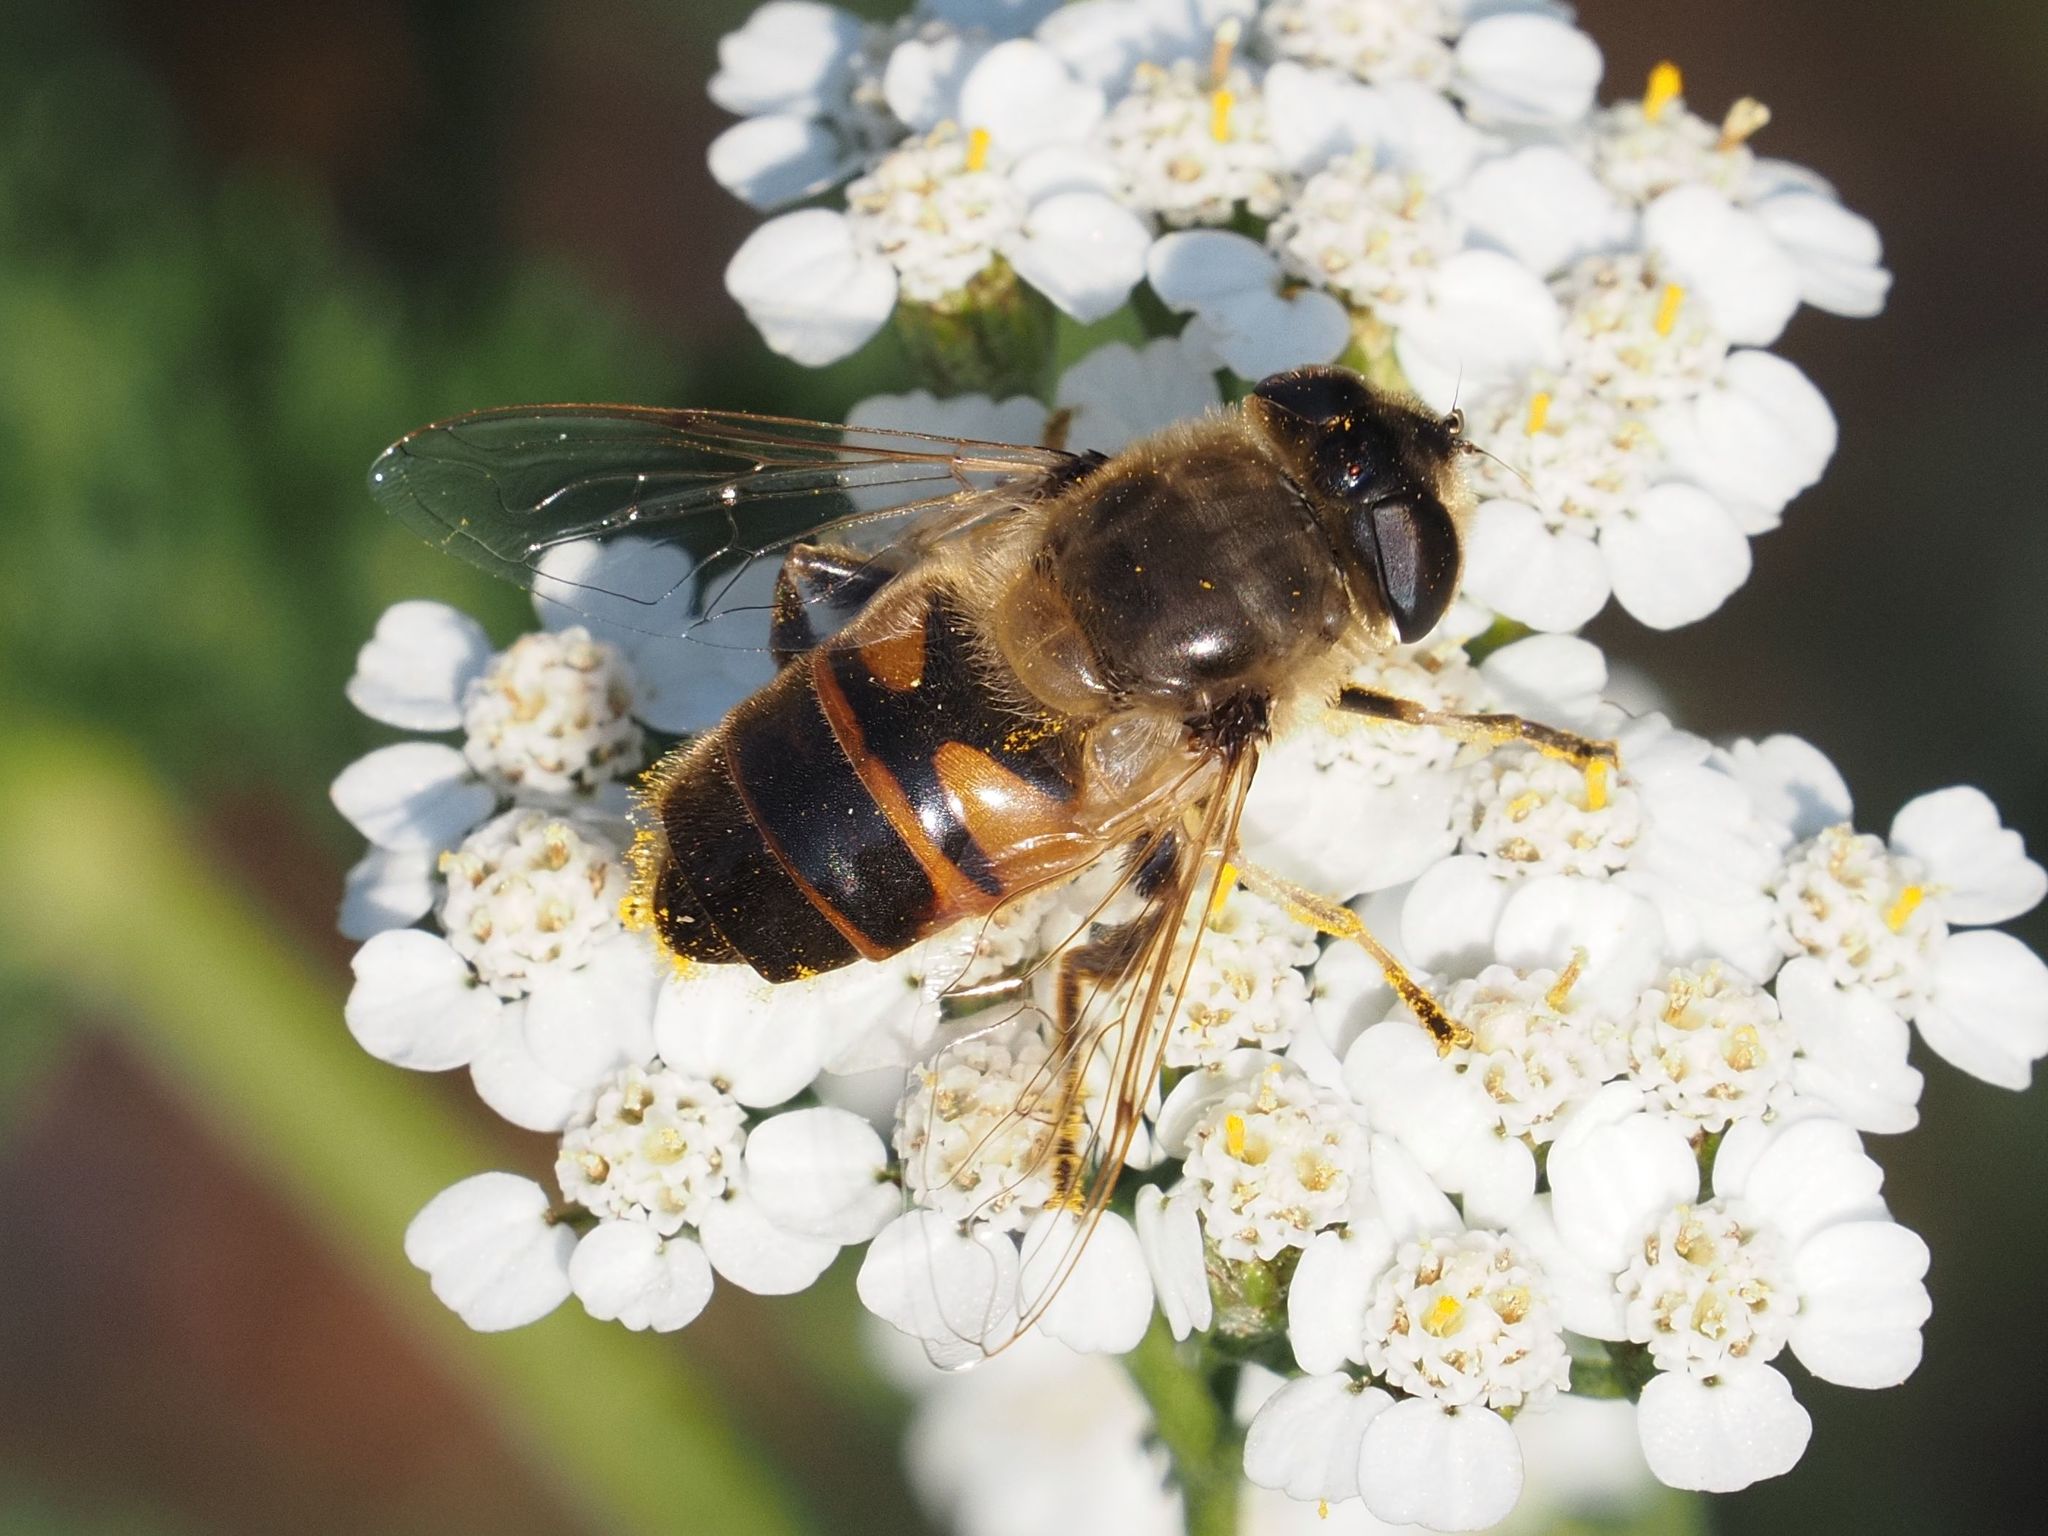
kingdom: Animalia
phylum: Arthropoda
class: Insecta
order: Diptera
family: Syrphidae
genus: Eristalis
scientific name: Eristalis tenax
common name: Drone fly
